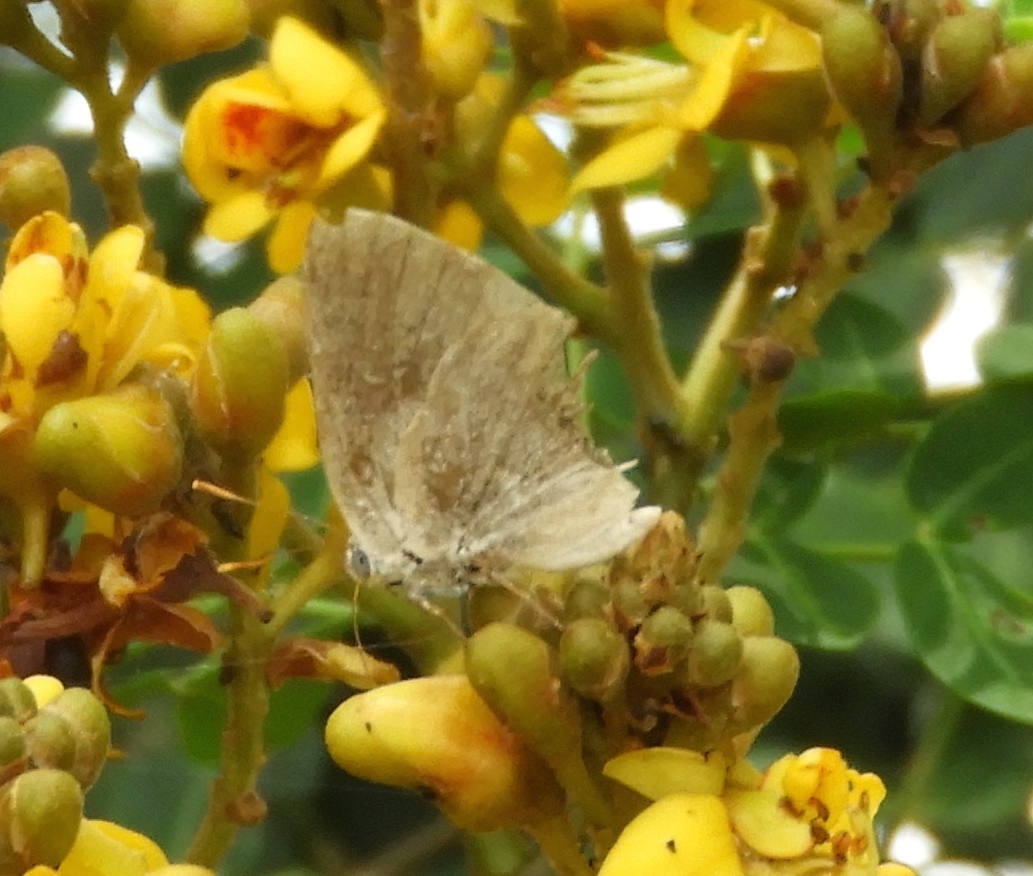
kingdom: Animalia
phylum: Arthropoda
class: Insecta
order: Lepidoptera
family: Lycaenidae
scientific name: Lycaenidae
